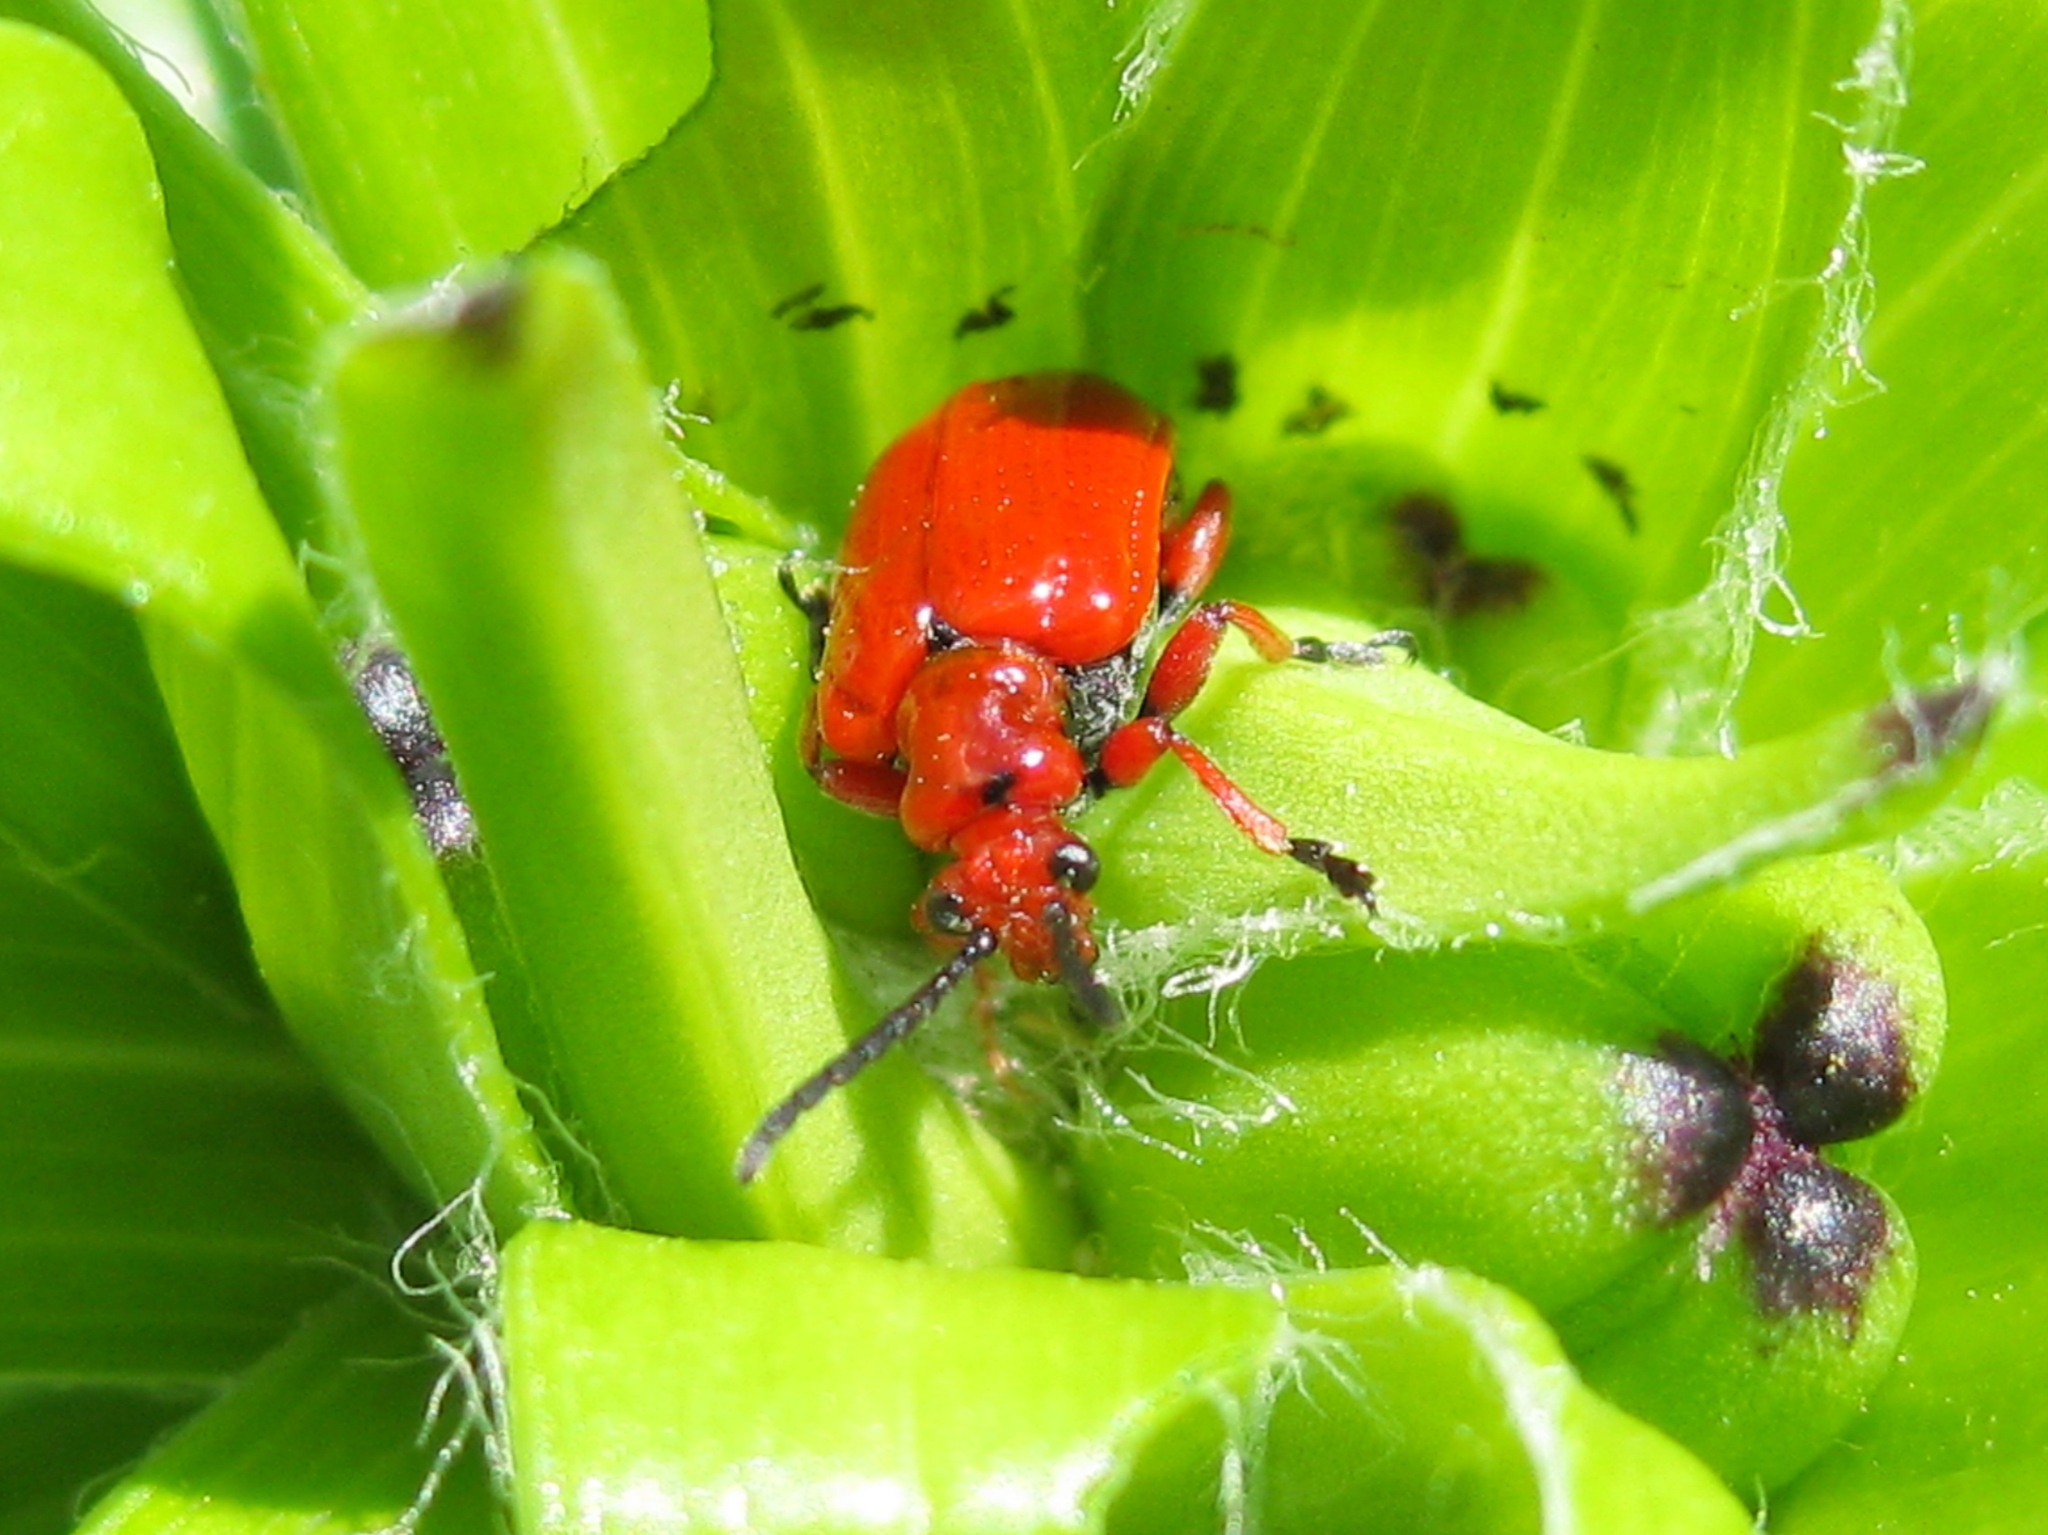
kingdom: Animalia
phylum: Arthropoda
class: Insecta
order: Coleoptera
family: Chrysomelidae
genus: Lilioceris
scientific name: Lilioceris faldermanni
